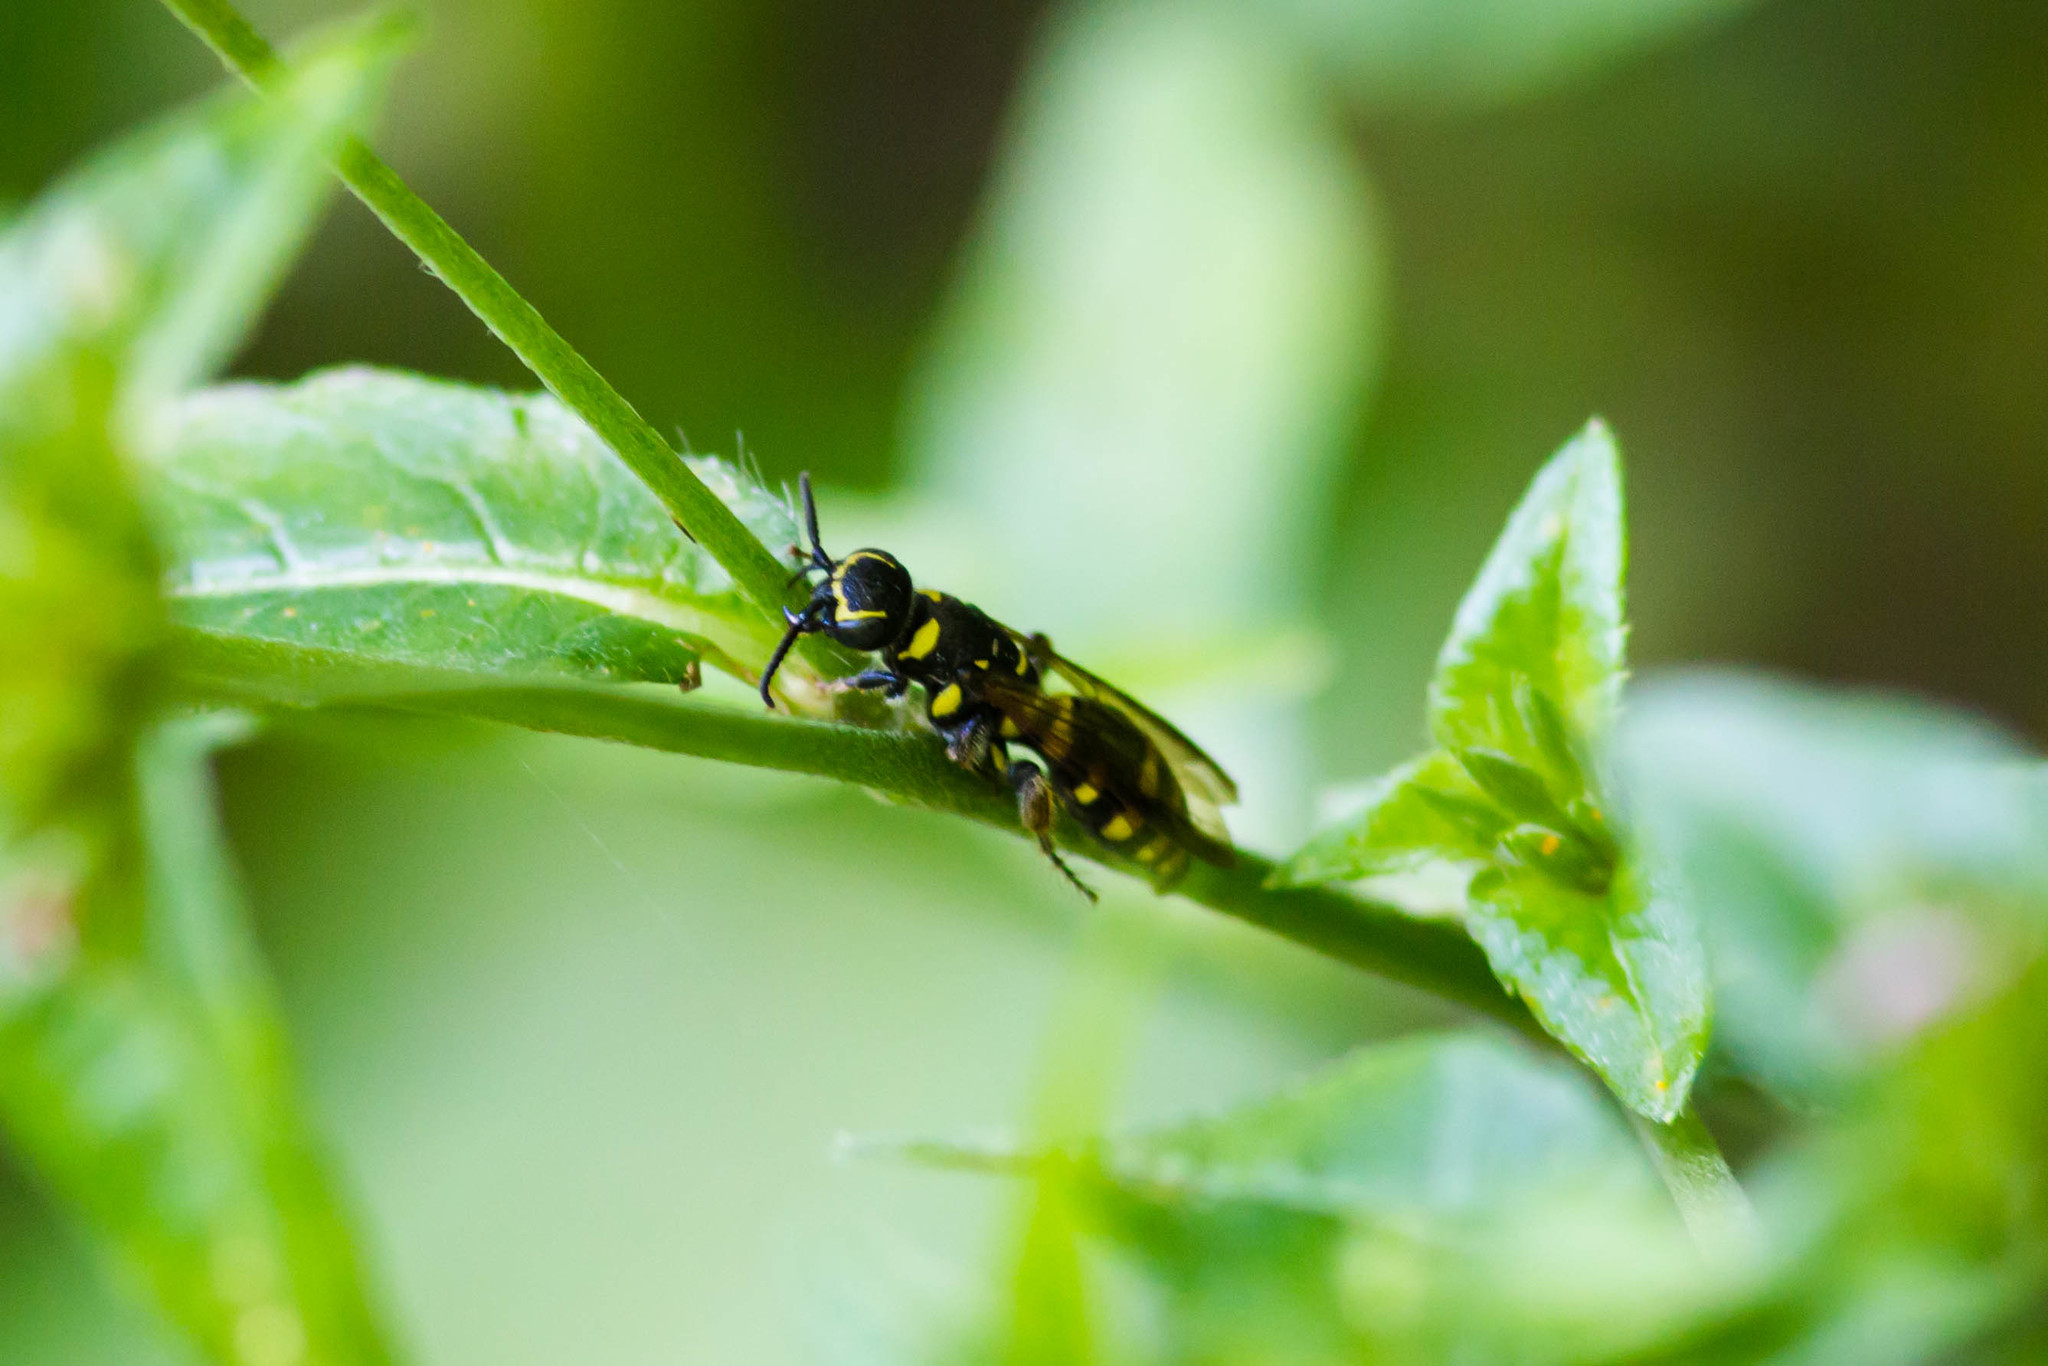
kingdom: Animalia
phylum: Arthropoda
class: Insecta
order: Hymenoptera
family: Tiphiidae
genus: Myzinum
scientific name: Myzinum maculatum
